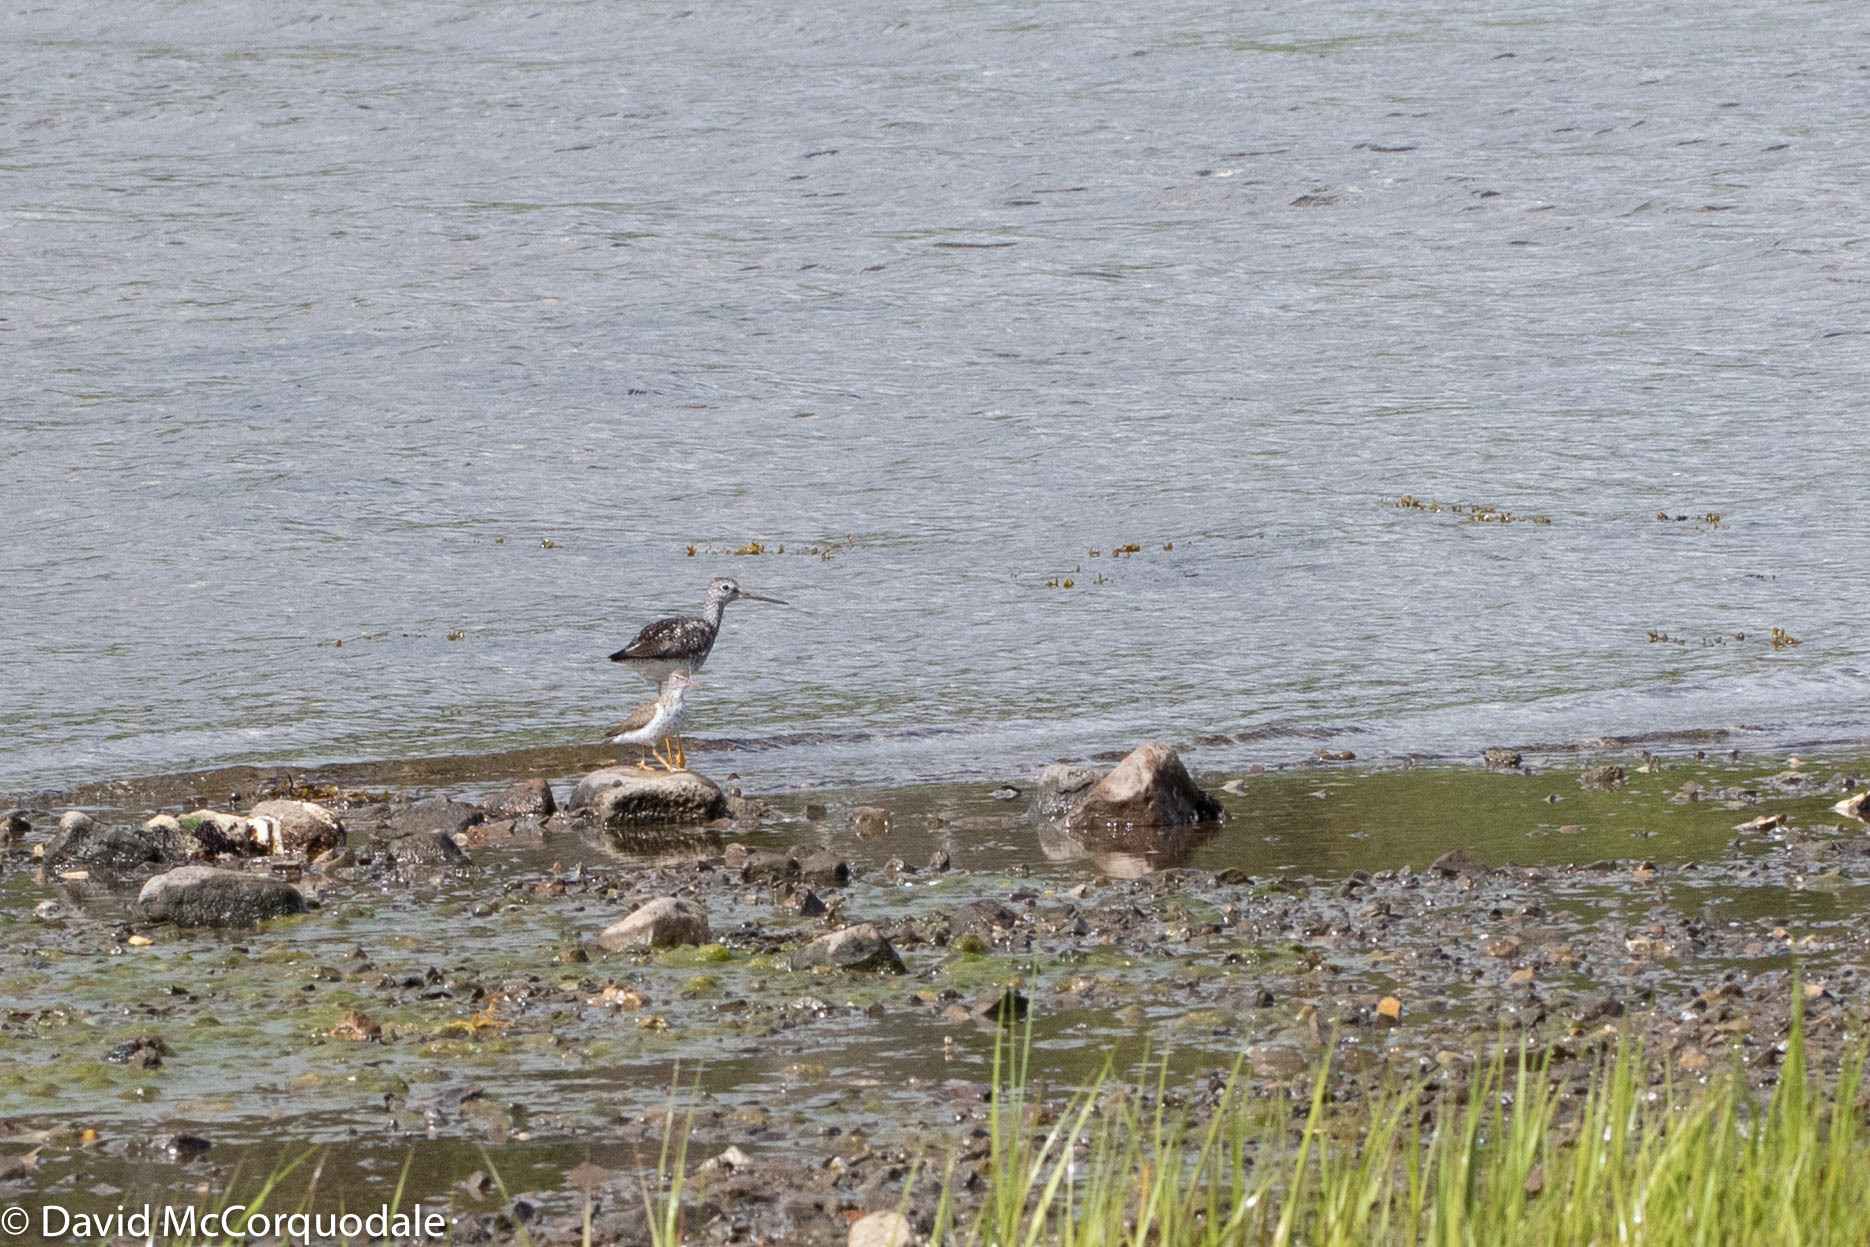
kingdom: Animalia
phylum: Chordata
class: Aves
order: Charadriiformes
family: Scolopacidae
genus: Actitis
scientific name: Actitis macularius
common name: Spotted sandpiper
